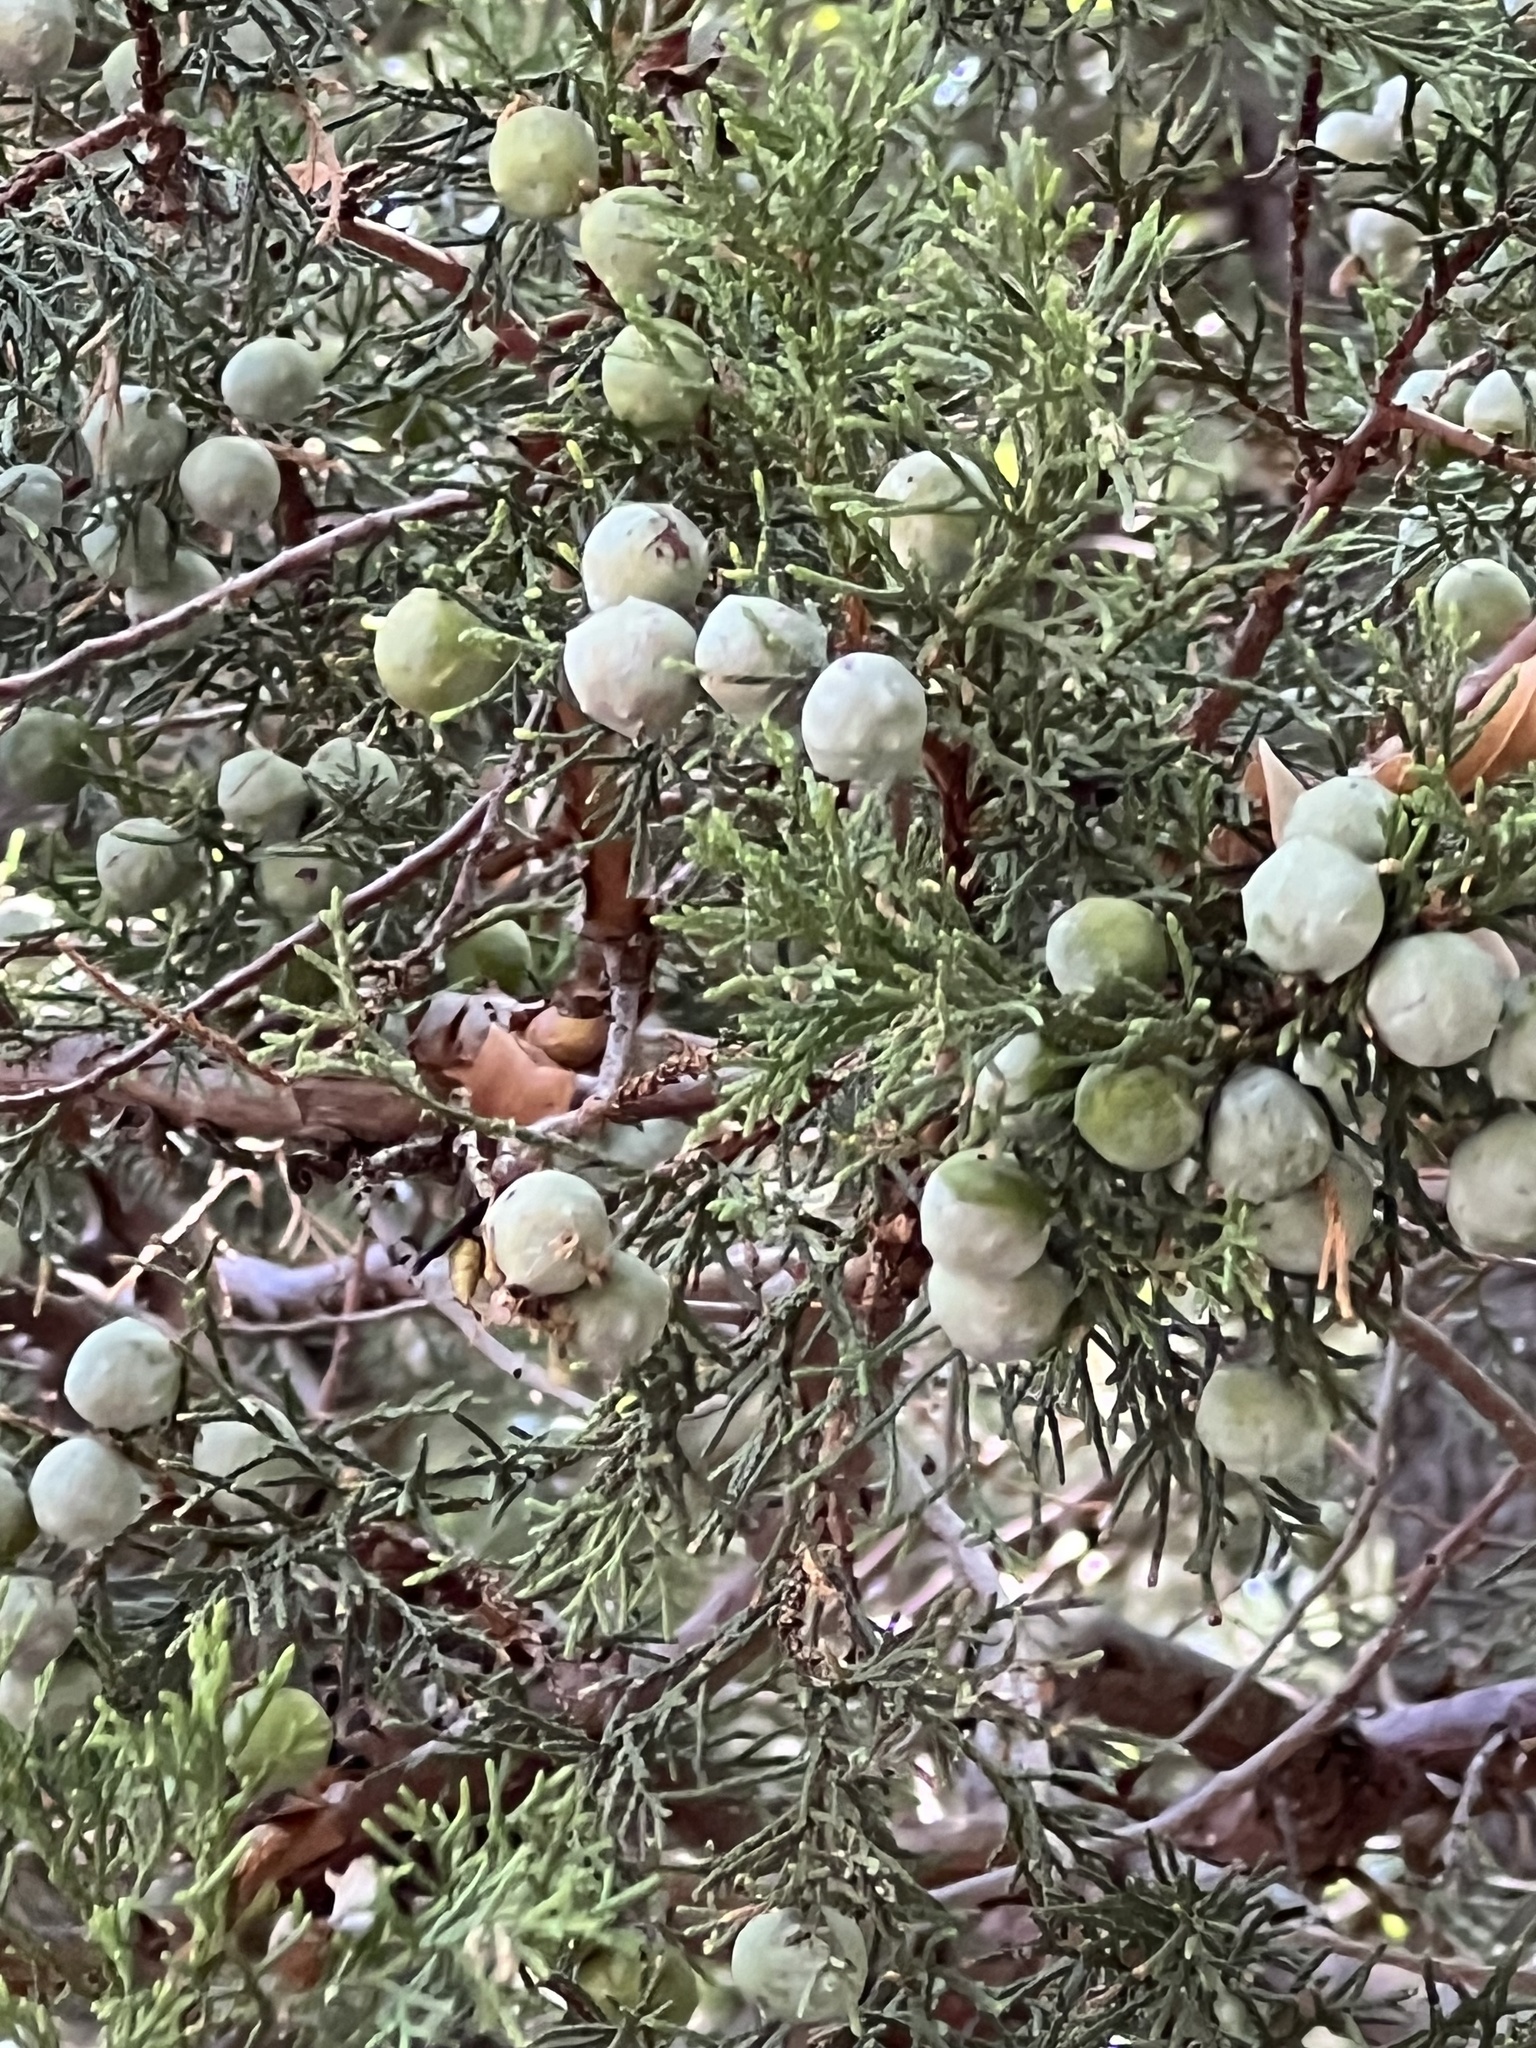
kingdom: Plantae
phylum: Tracheophyta
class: Pinopsida
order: Pinales
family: Cupressaceae
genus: Juniperus
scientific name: Juniperus deppeana
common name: Alligator juniper
